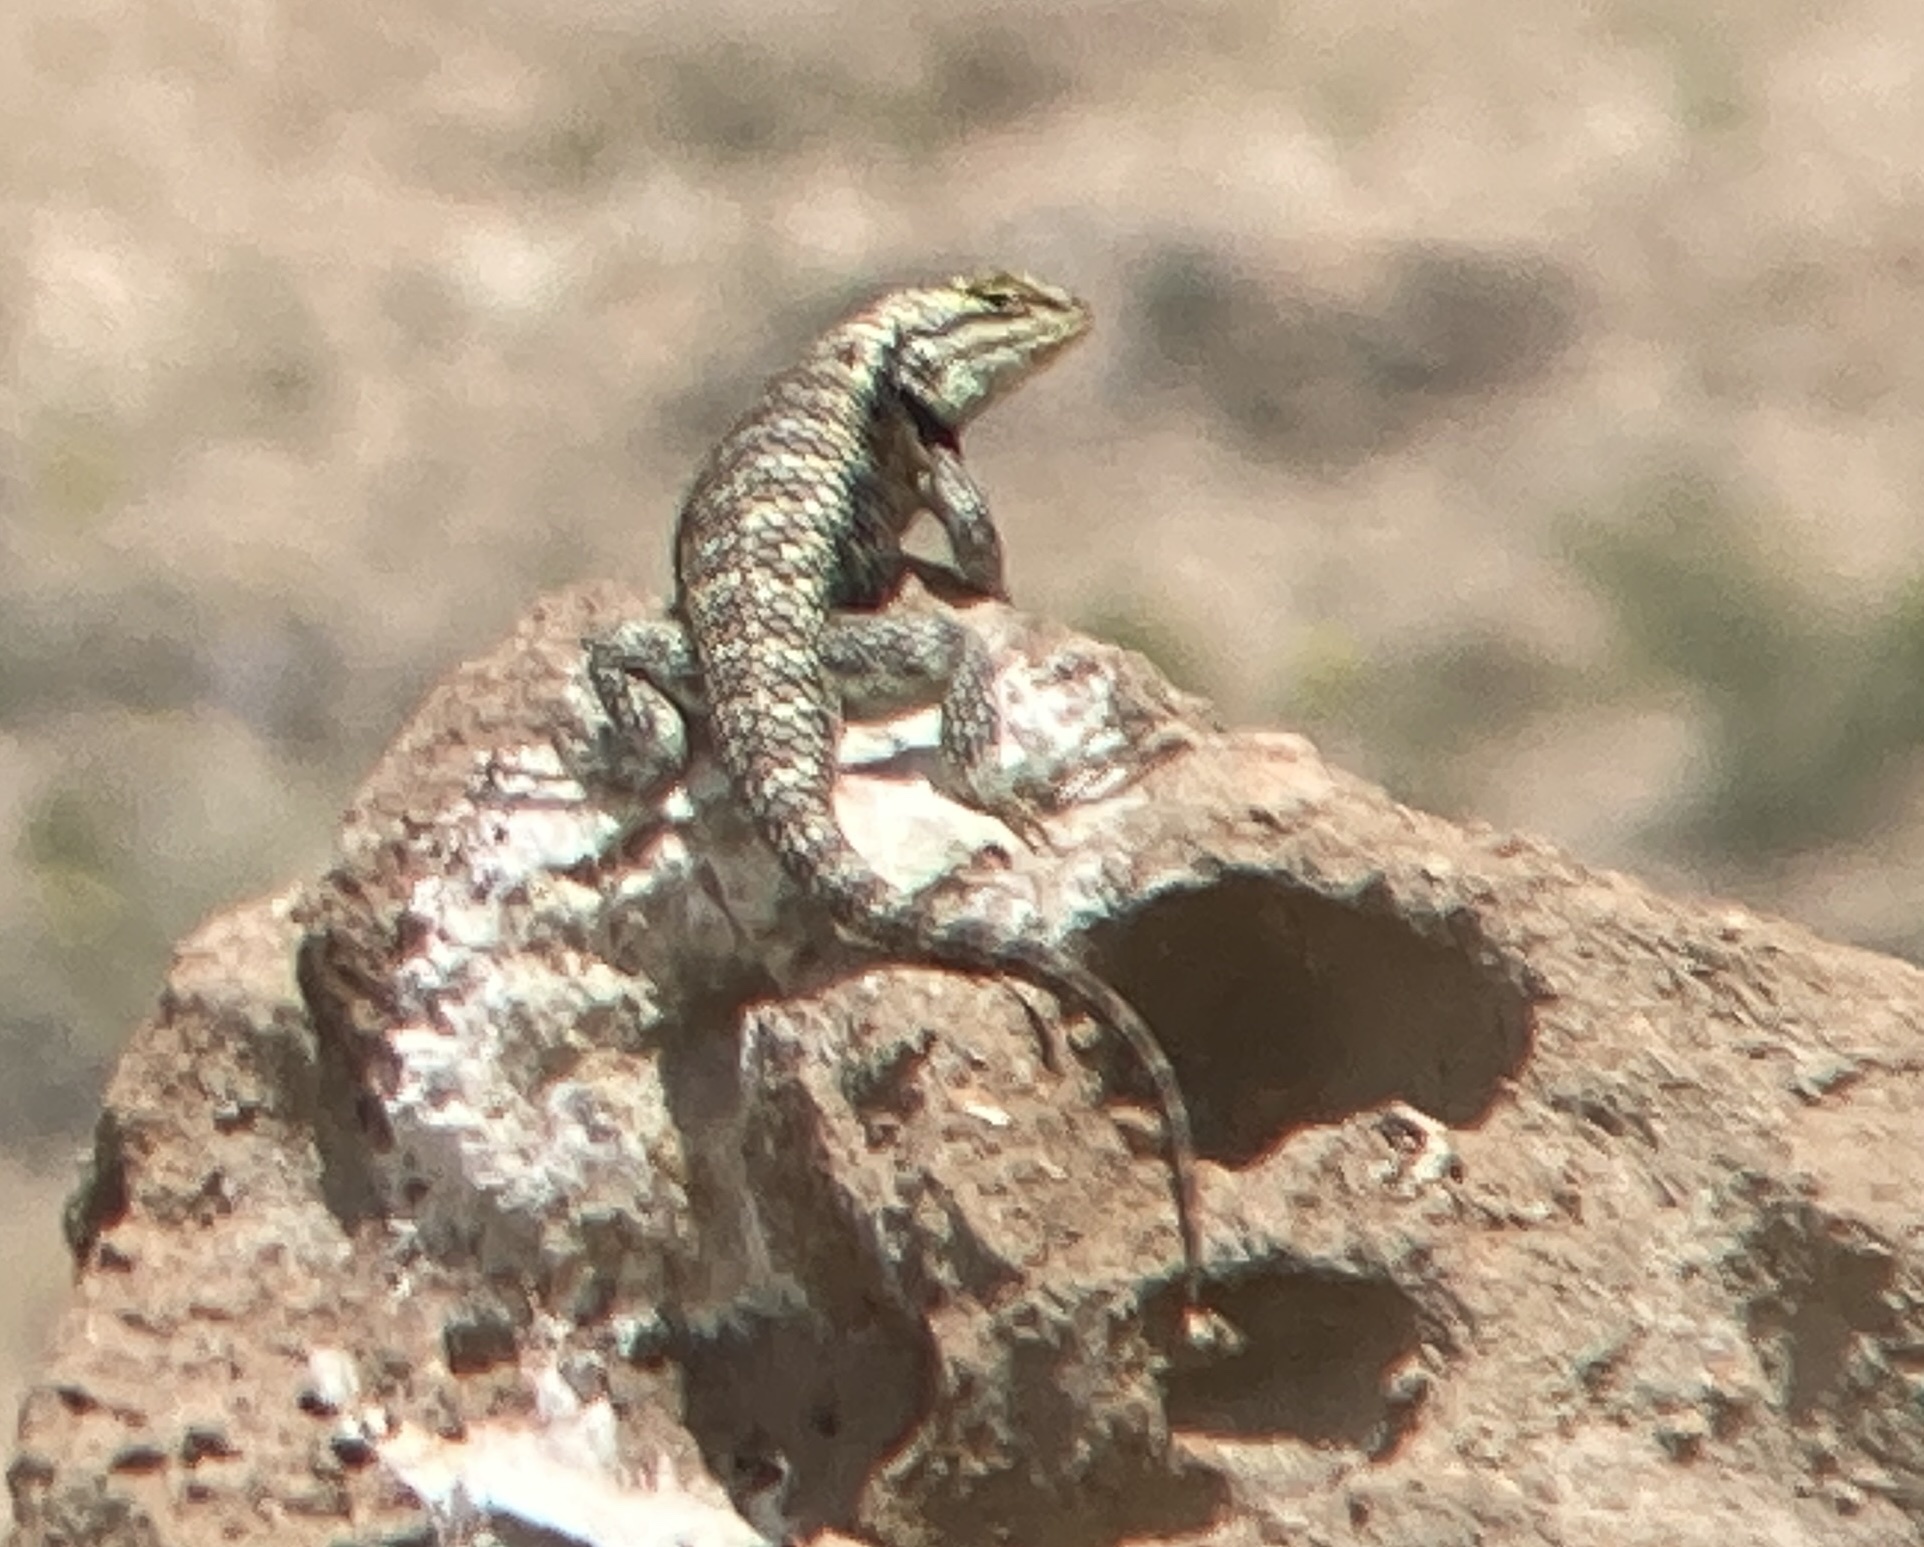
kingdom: Animalia
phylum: Chordata
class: Squamata
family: Phrynosomatidae
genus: Sceloporus
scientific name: Sceloporus uniformis
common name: Yellow-backed spiny lizard
